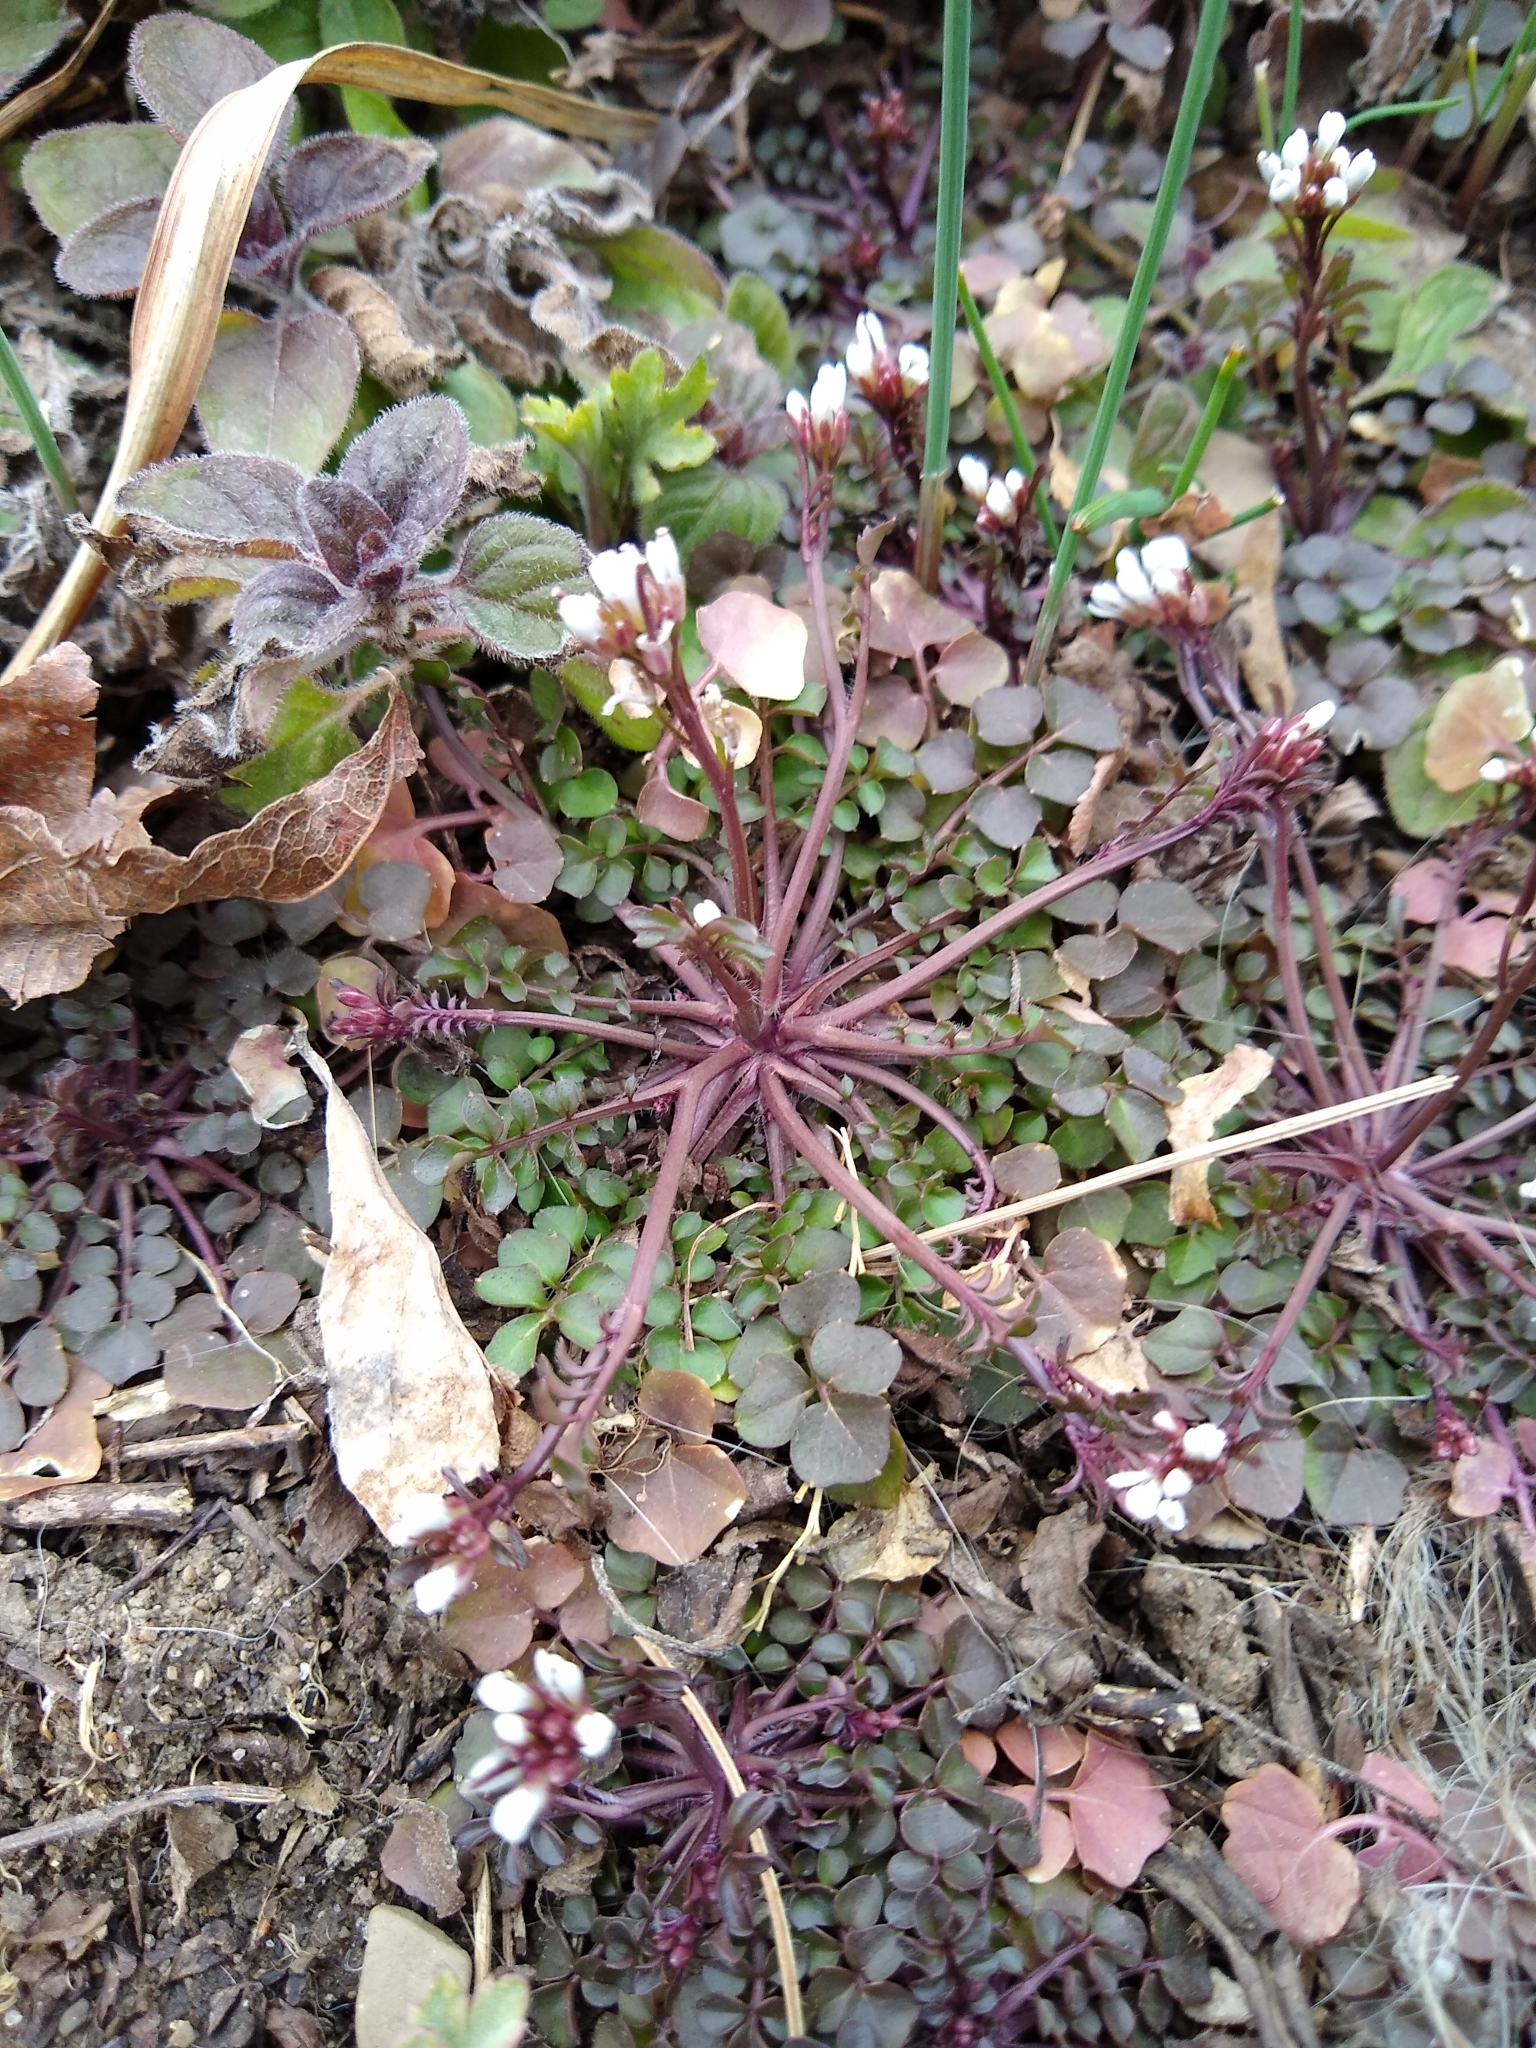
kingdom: Plantae
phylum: Tracheophyta
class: Magnoliopsida
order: Brassicales
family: Brassicaceae
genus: Cardamine
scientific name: Cardamine hirsuta
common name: Hairy bittercress
